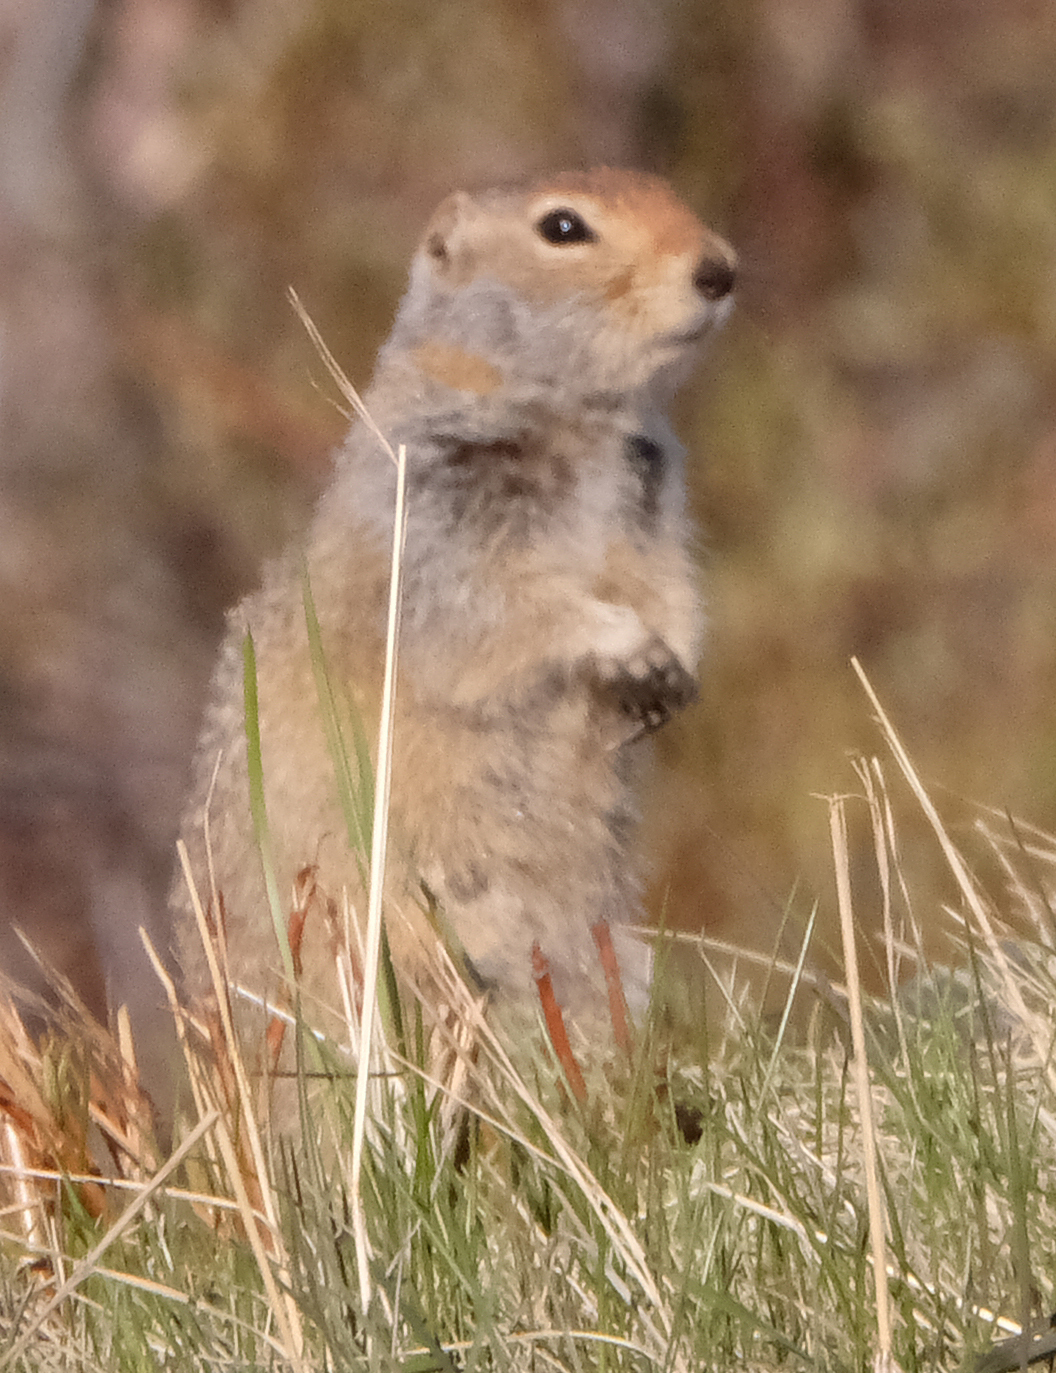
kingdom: Animalia
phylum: Chordata
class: Mammalia
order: Rodentia
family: Sciuridae
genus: Urocitellus
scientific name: Urocitellus parryii
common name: Arctic ground squirrel
